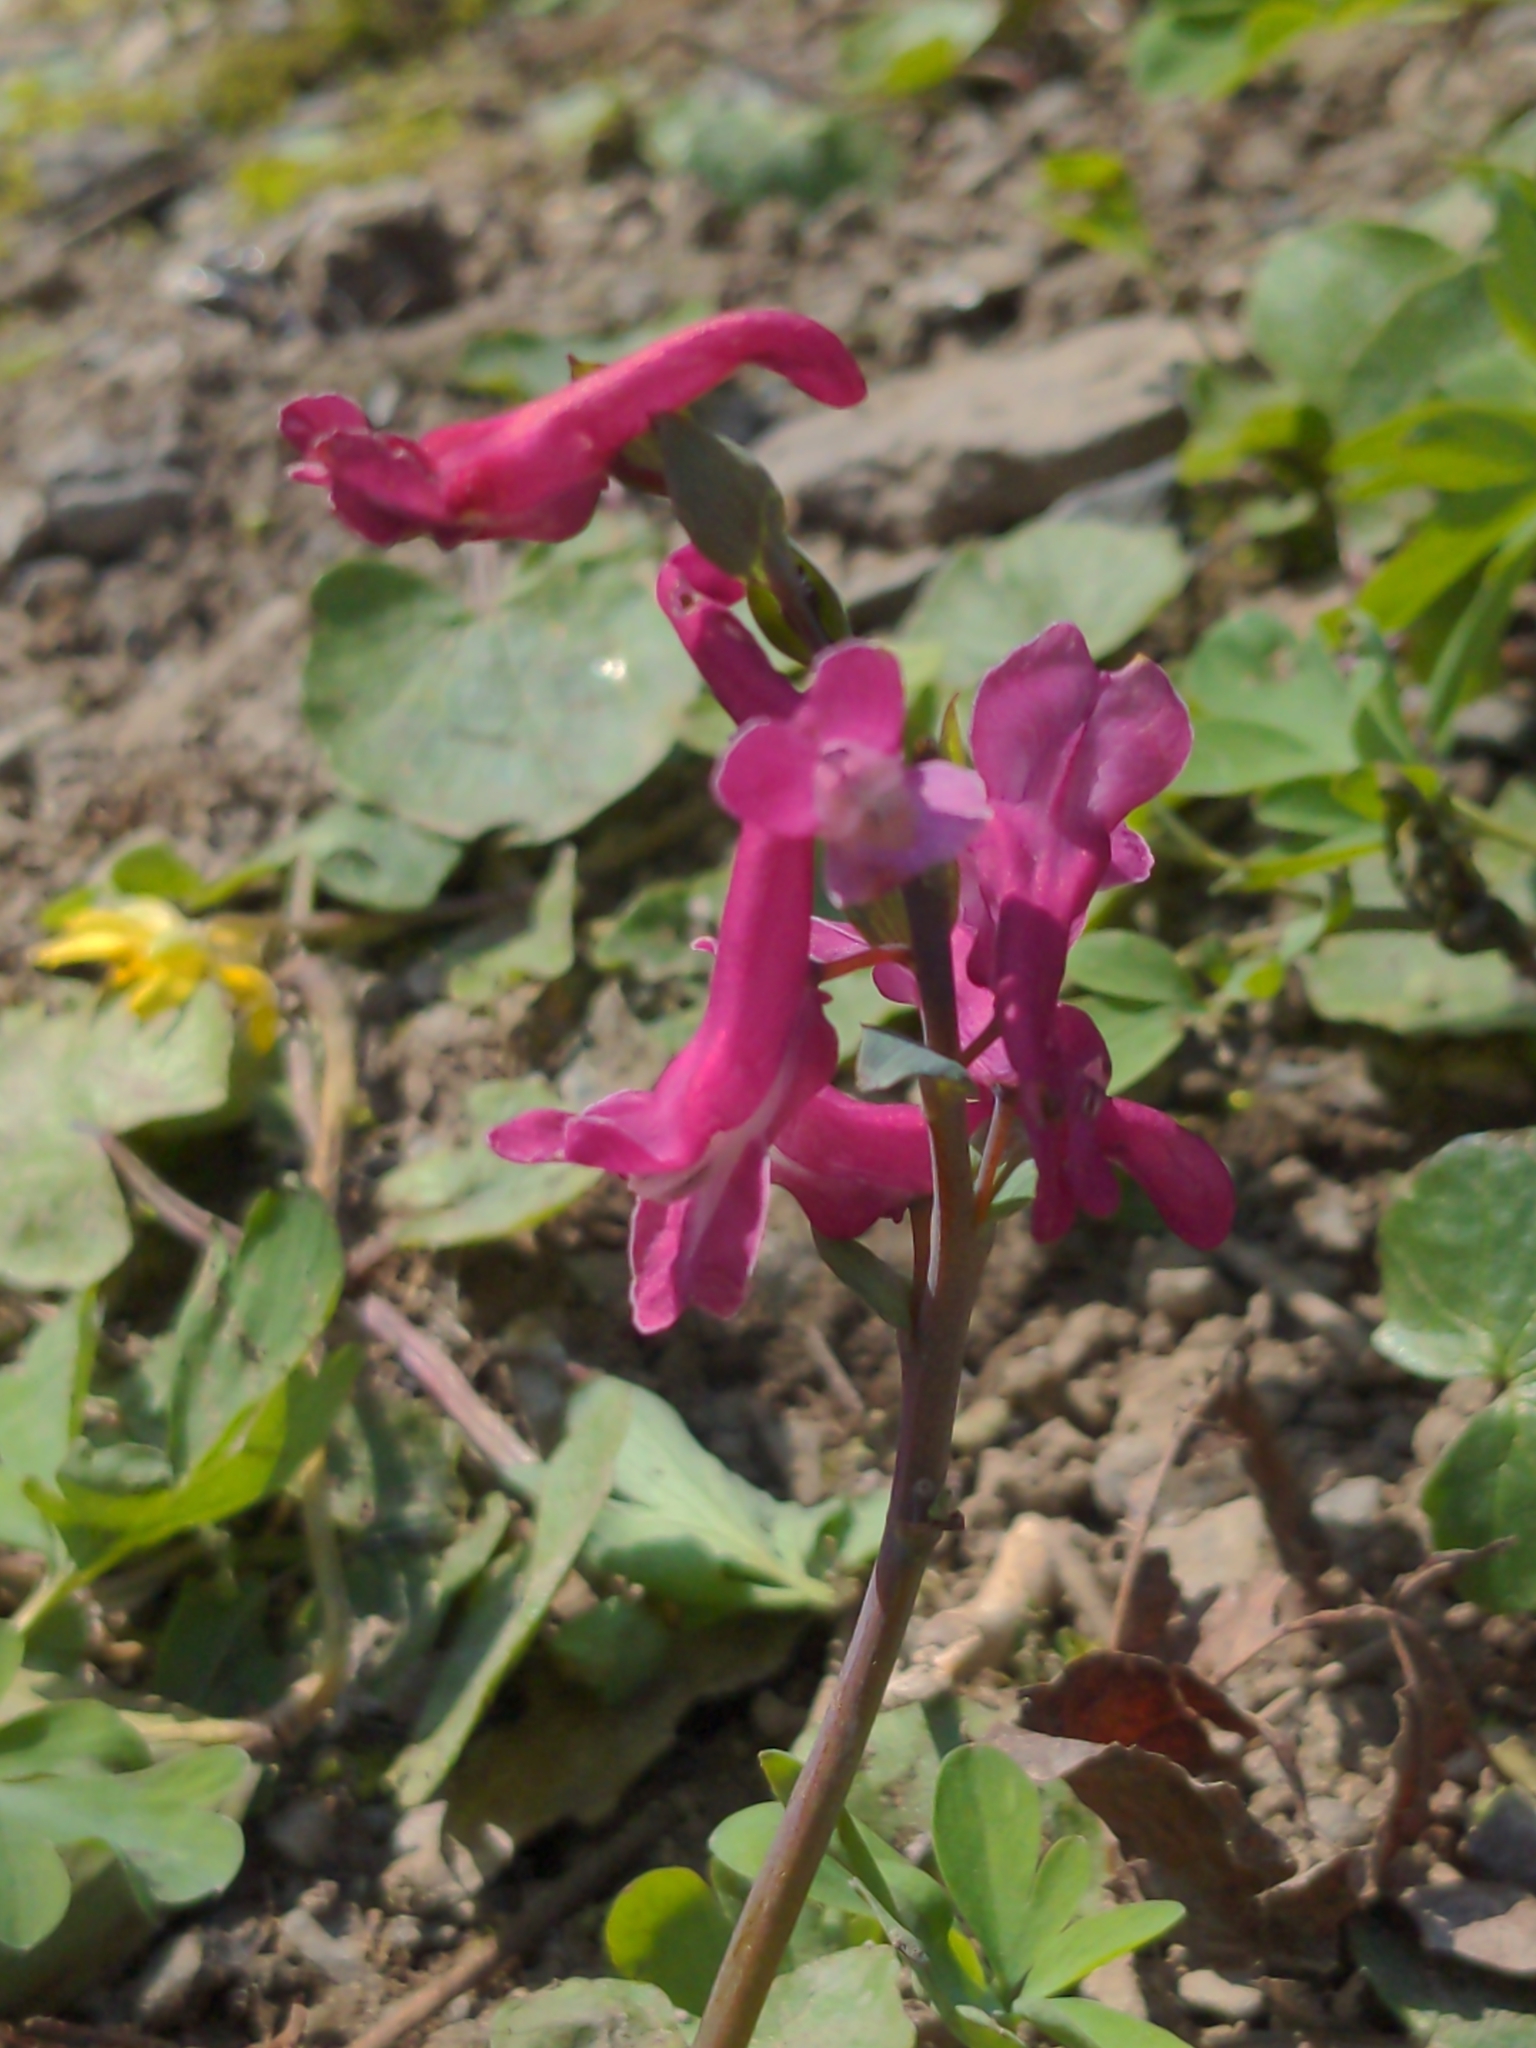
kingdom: Plantae
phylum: Tracheophyta
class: Magnoliopsida
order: Ranunculales
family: Papaveraceae
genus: Corydalis
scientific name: Corydalis cava
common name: Hollowroot
